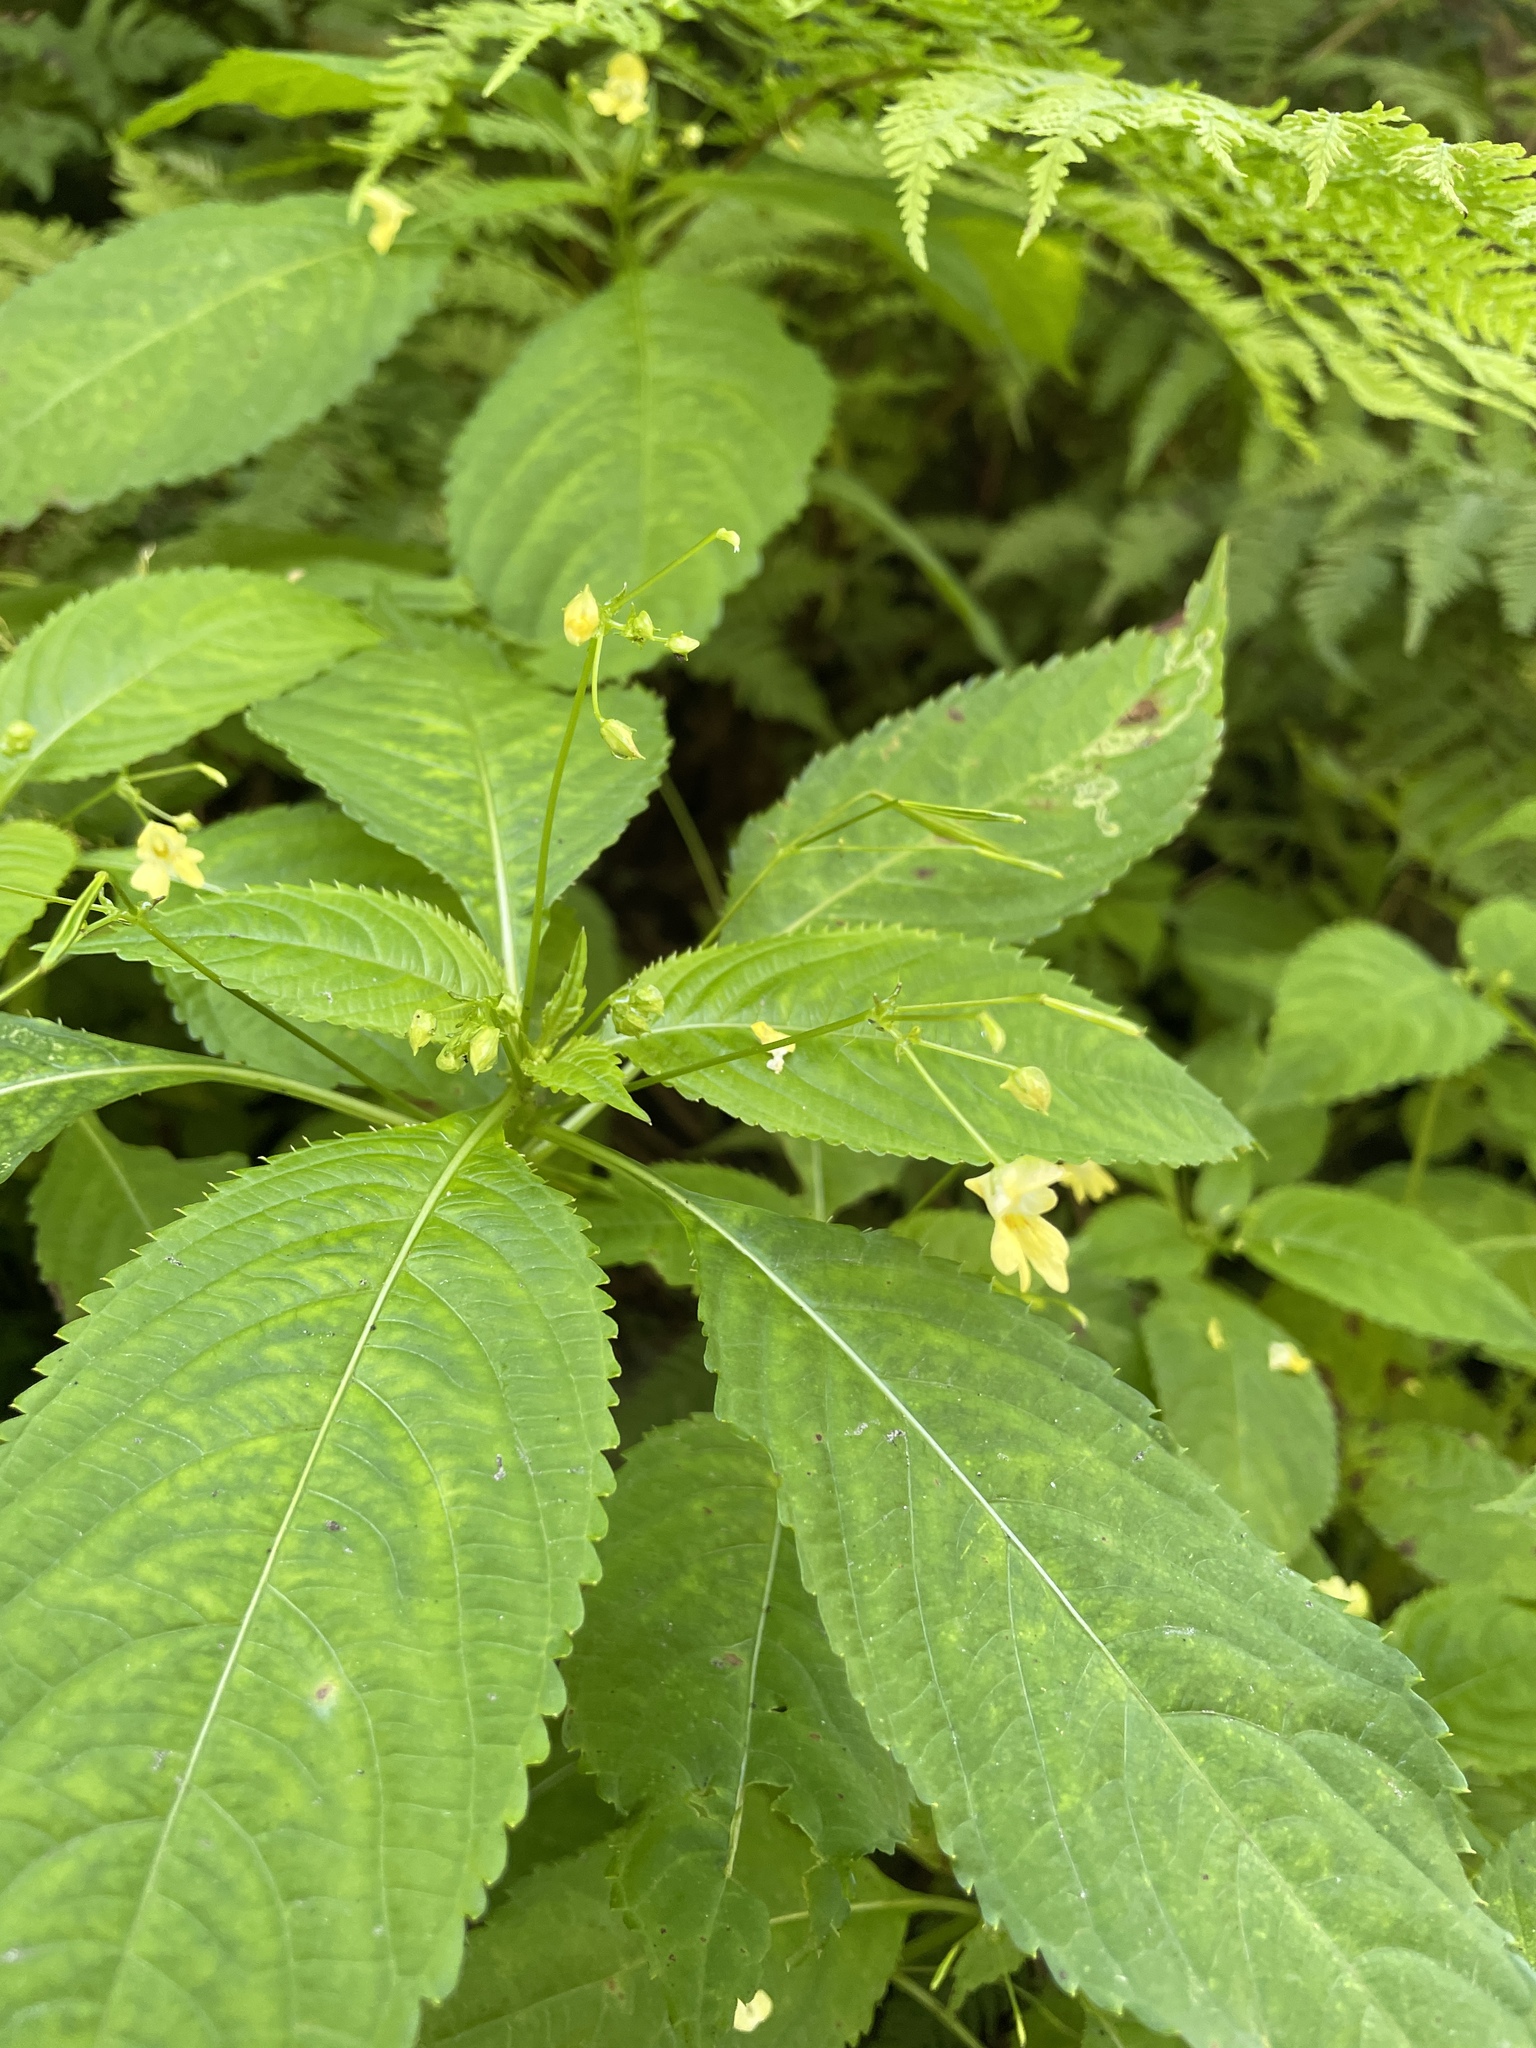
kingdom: Plantae
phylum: Tracheophyta
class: Magnoliopsida
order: Ericales
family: Balsaminaceae
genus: Impatiens
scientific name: Impatiens parviflora
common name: Small balsam
